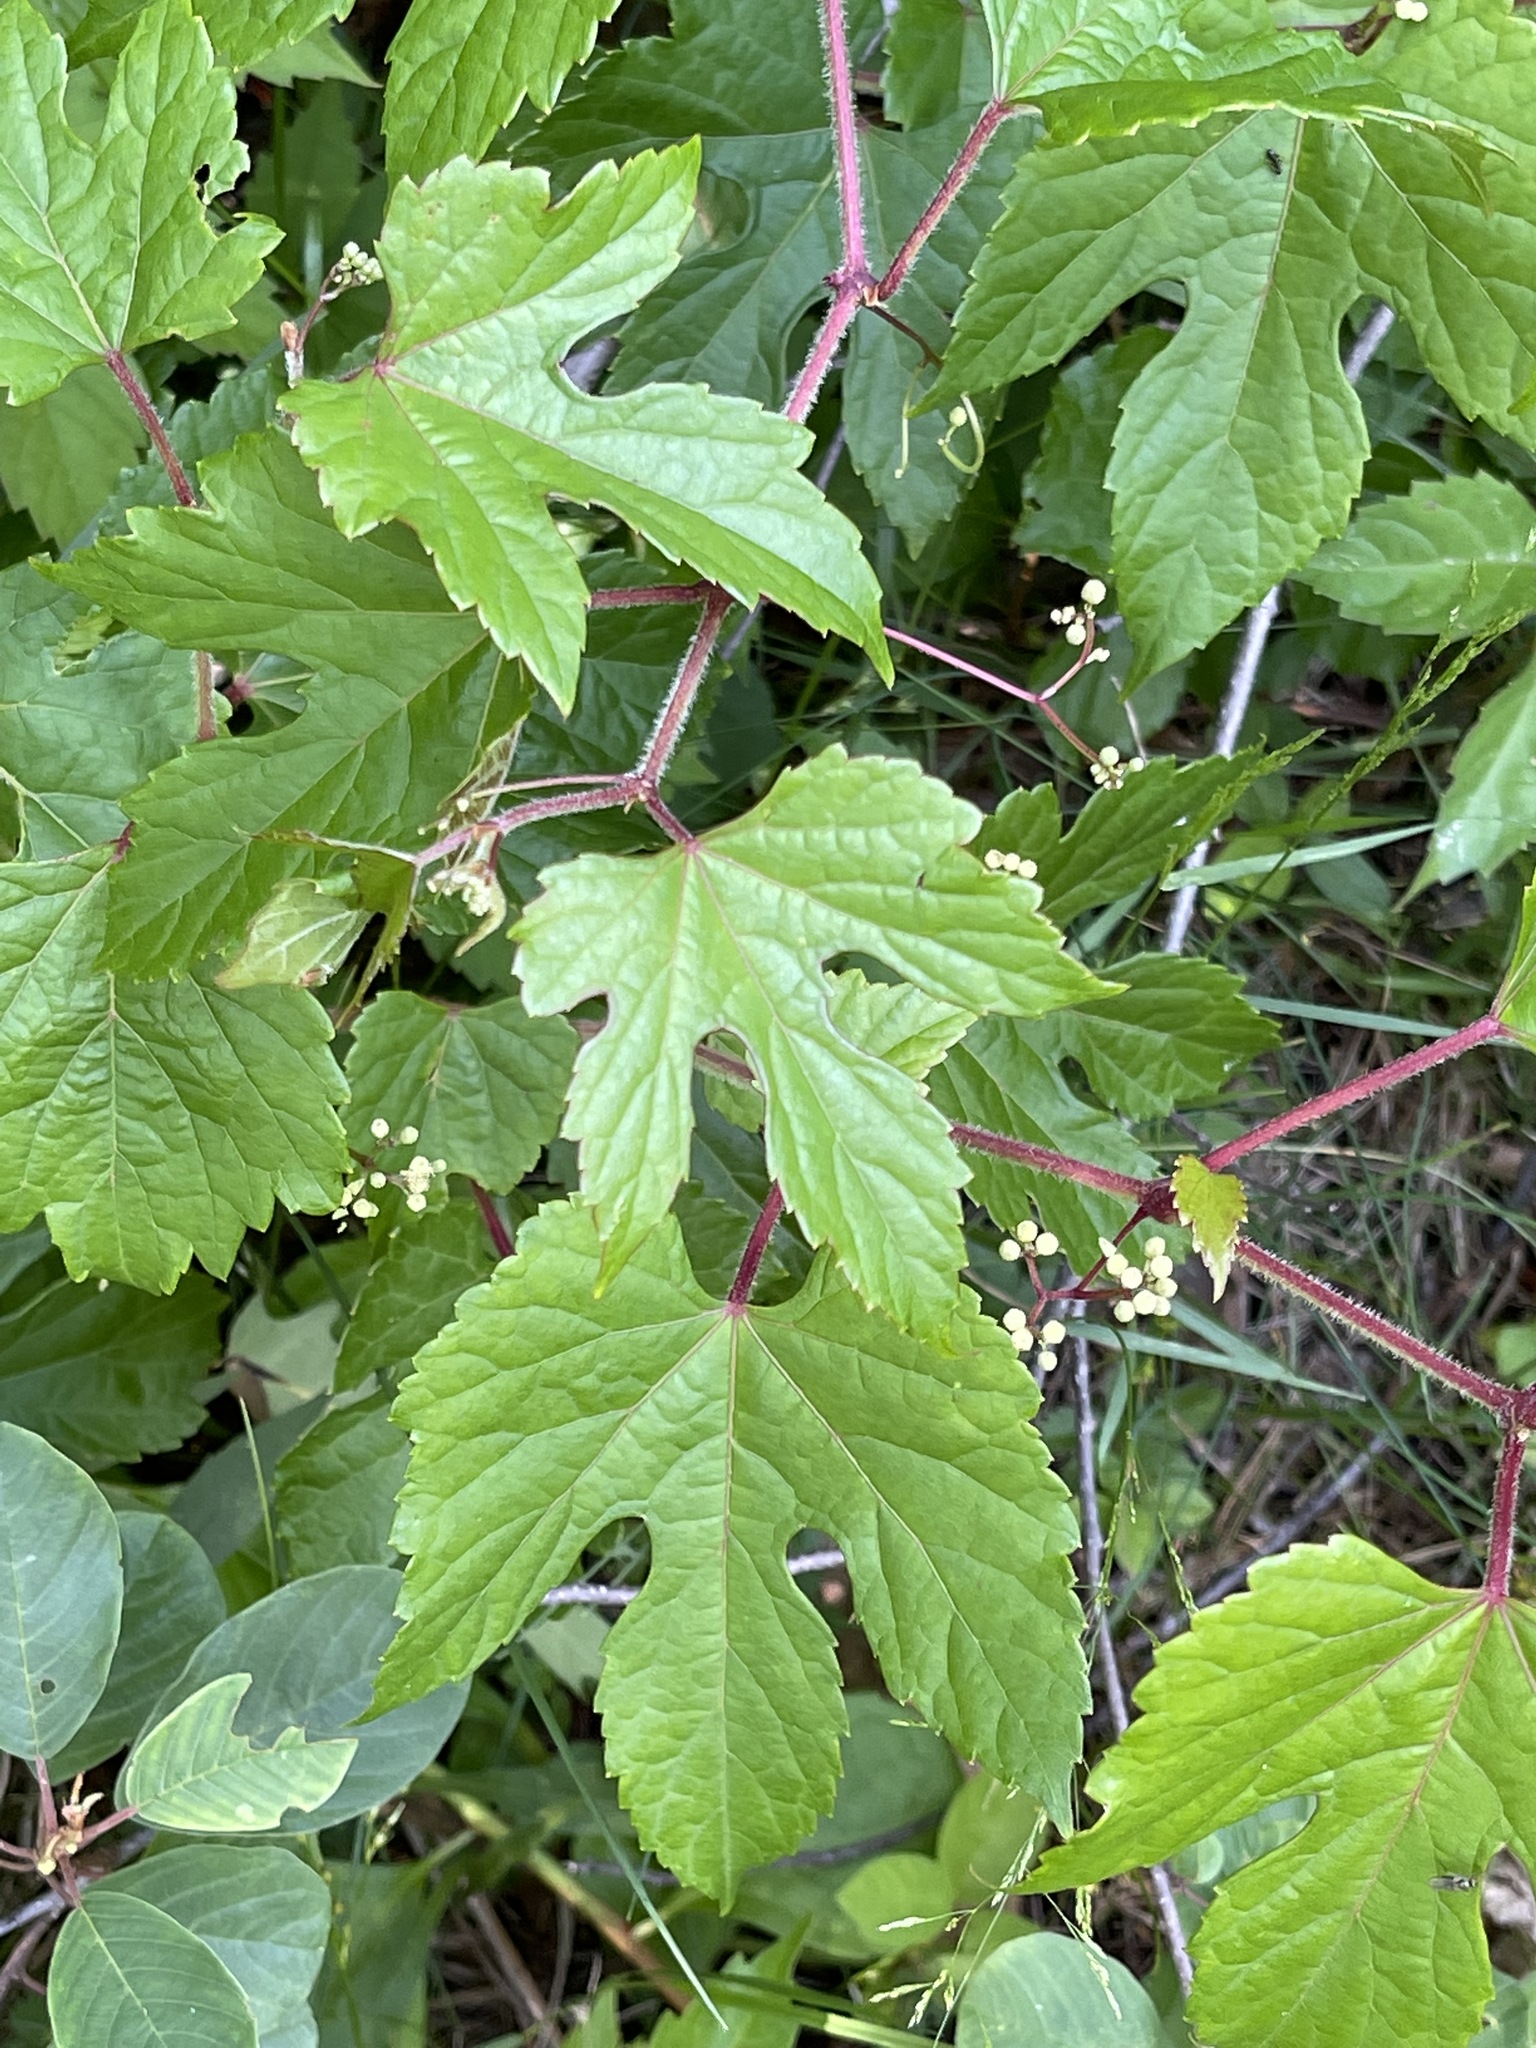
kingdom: Plantae
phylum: Tracheophyta
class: Magnoliopsida
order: Vitales
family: Vitaceae
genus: Ampelopsis
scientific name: Ampelopsis glandulosa
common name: Amur peppervine
